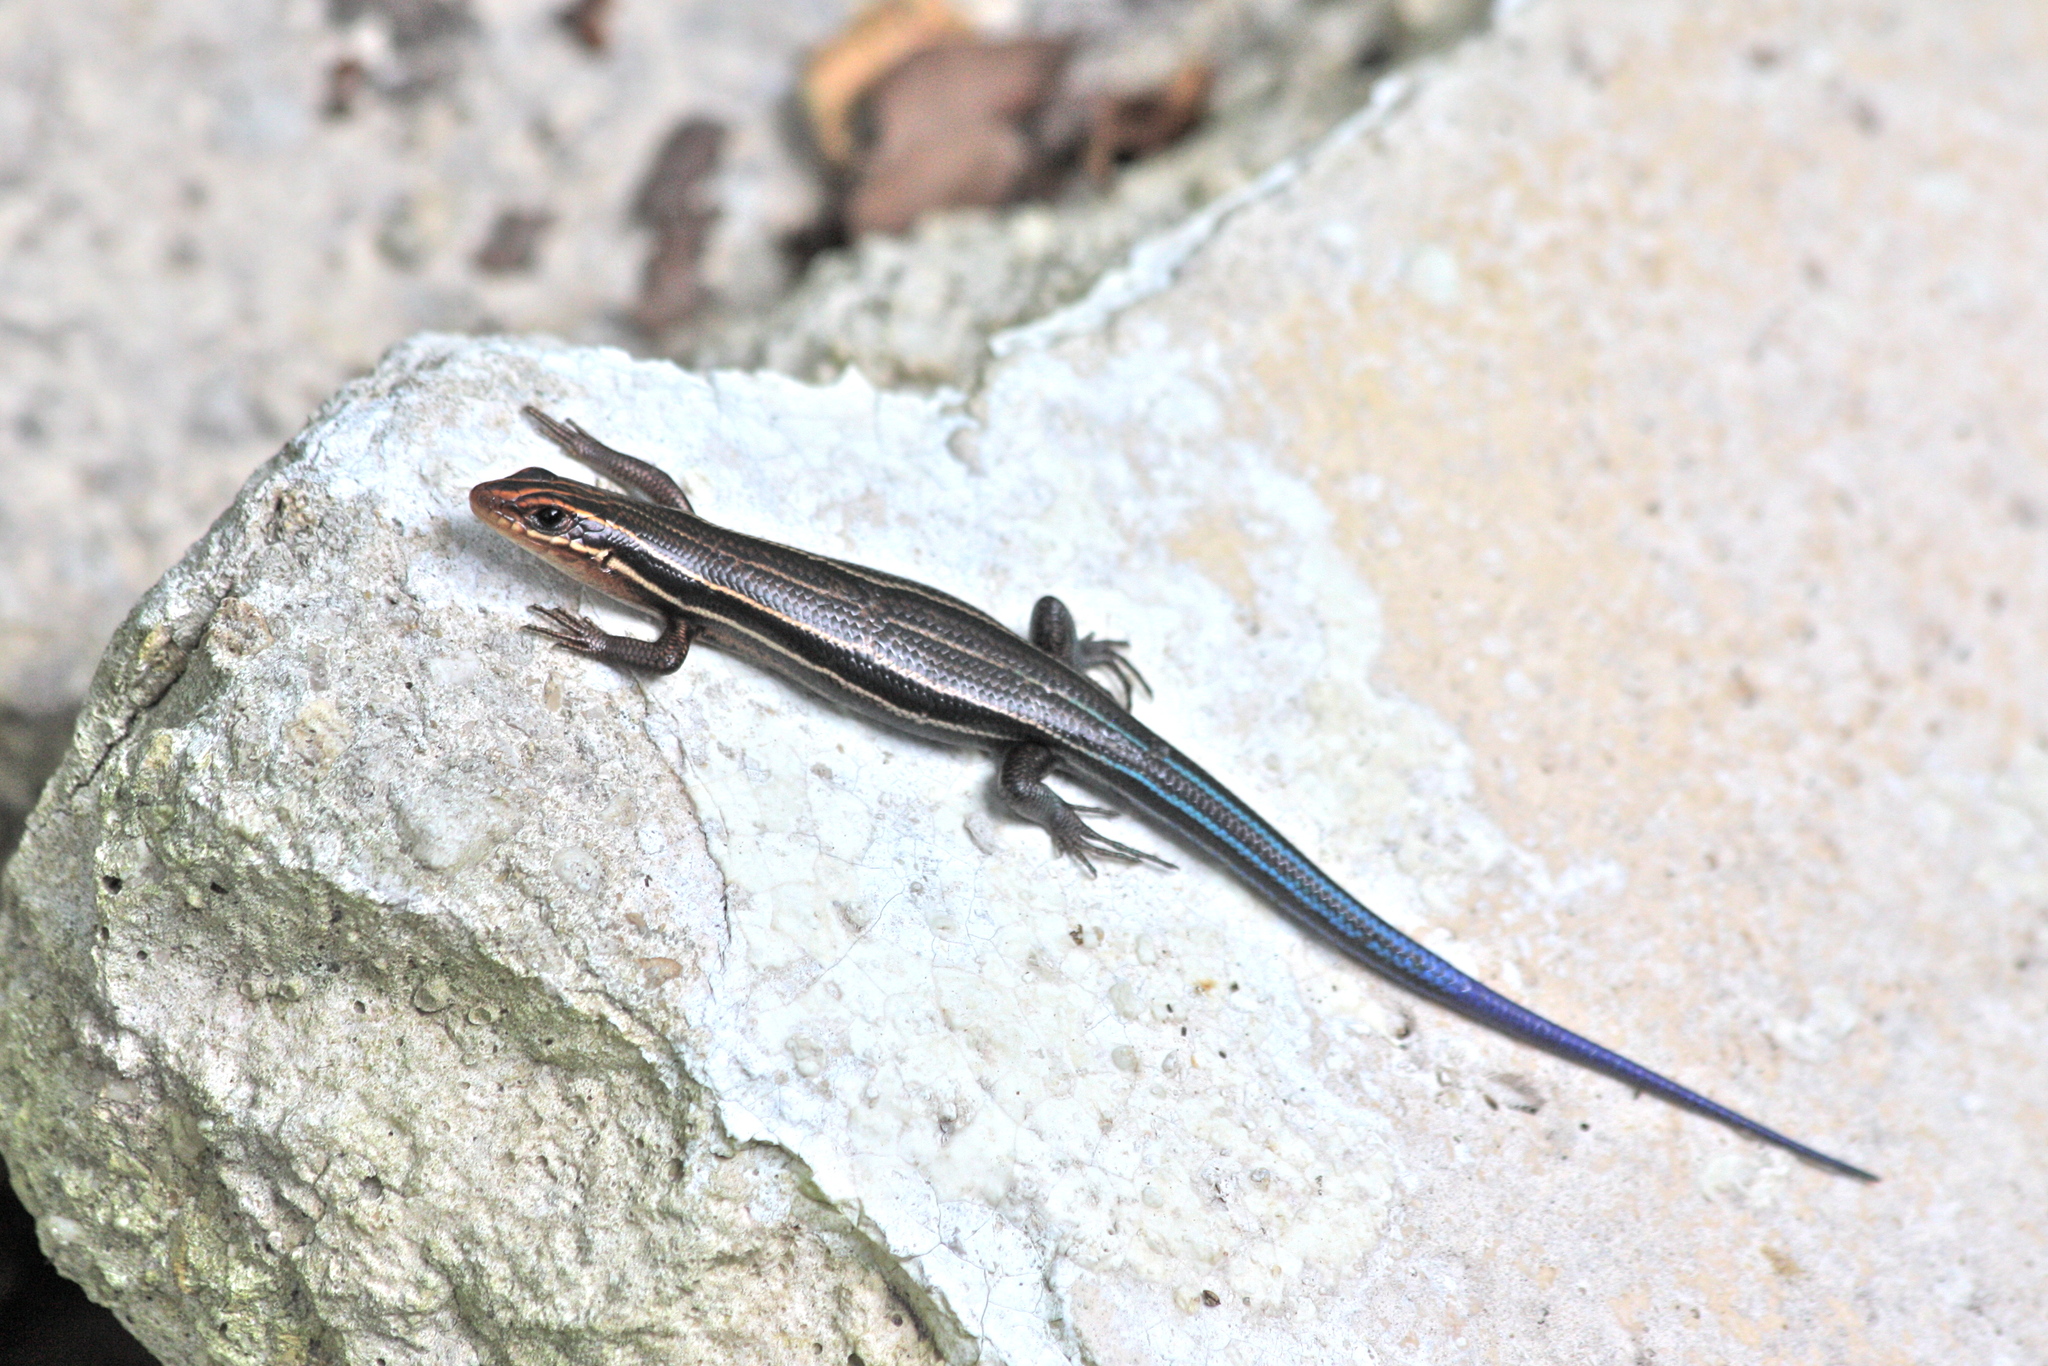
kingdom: Animalia
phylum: Chordata
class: Squamata
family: Scincidae
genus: Plestiodon
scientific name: Plestiodon inexpectatus
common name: Southeastern five-lined skink
